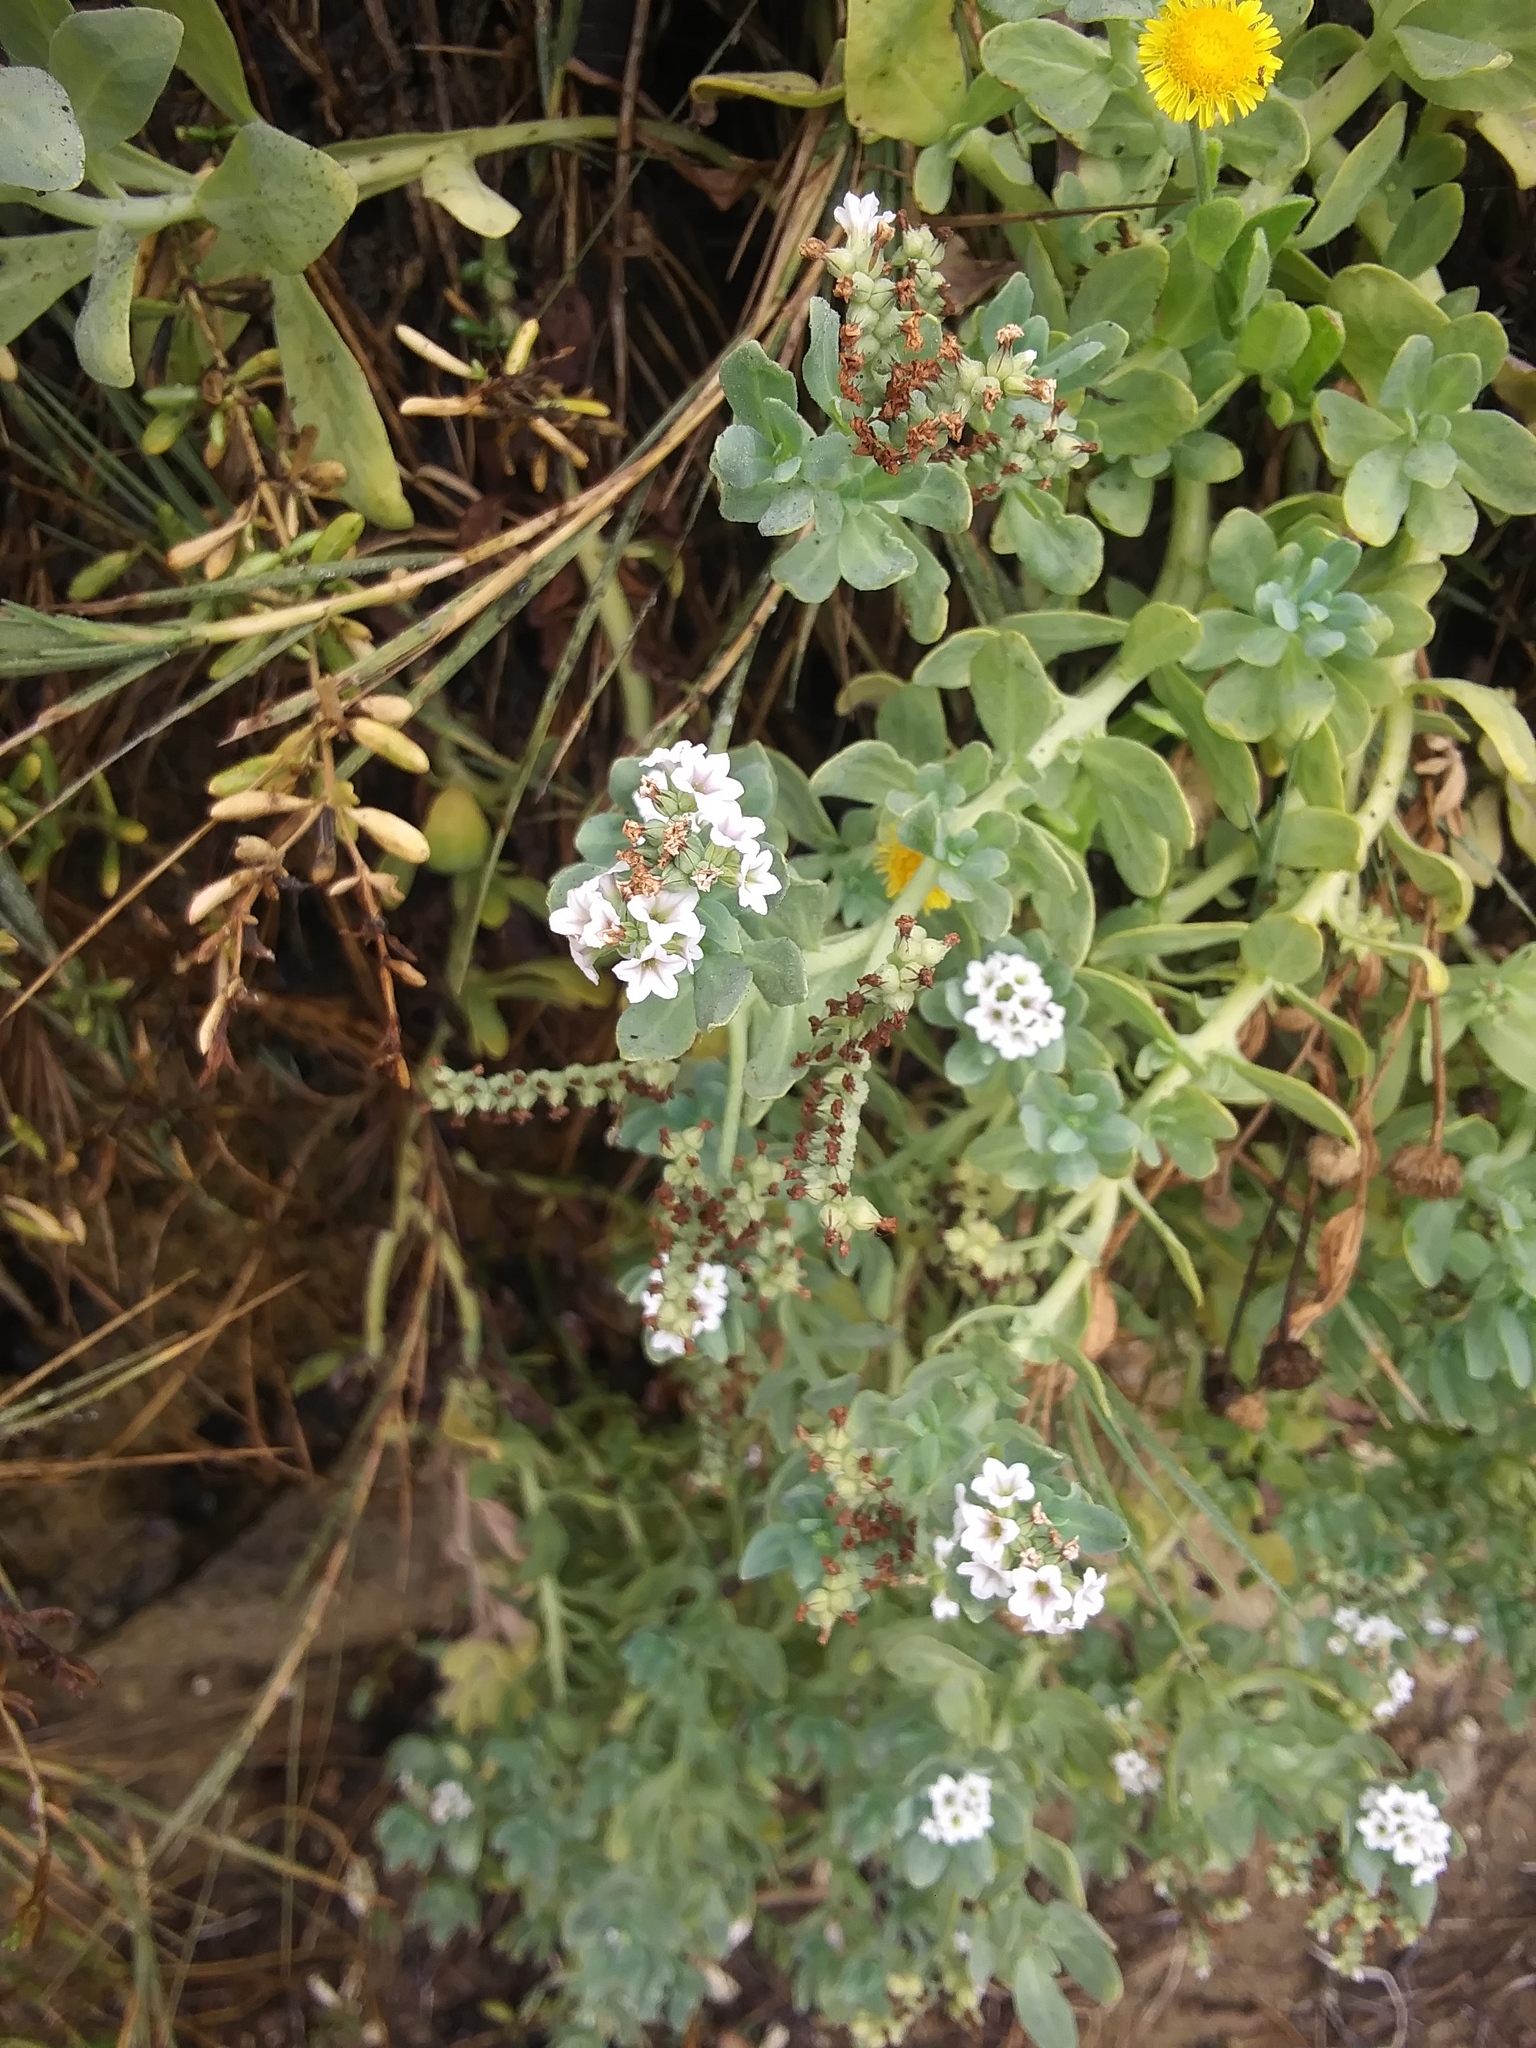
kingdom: Plantae
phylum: Tracheophyta
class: Magnoliopsida
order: Boraginales
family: Heliotropiaceae
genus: Heliotropium
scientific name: Heliotropium curassavicum
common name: Seaside heliotrope
